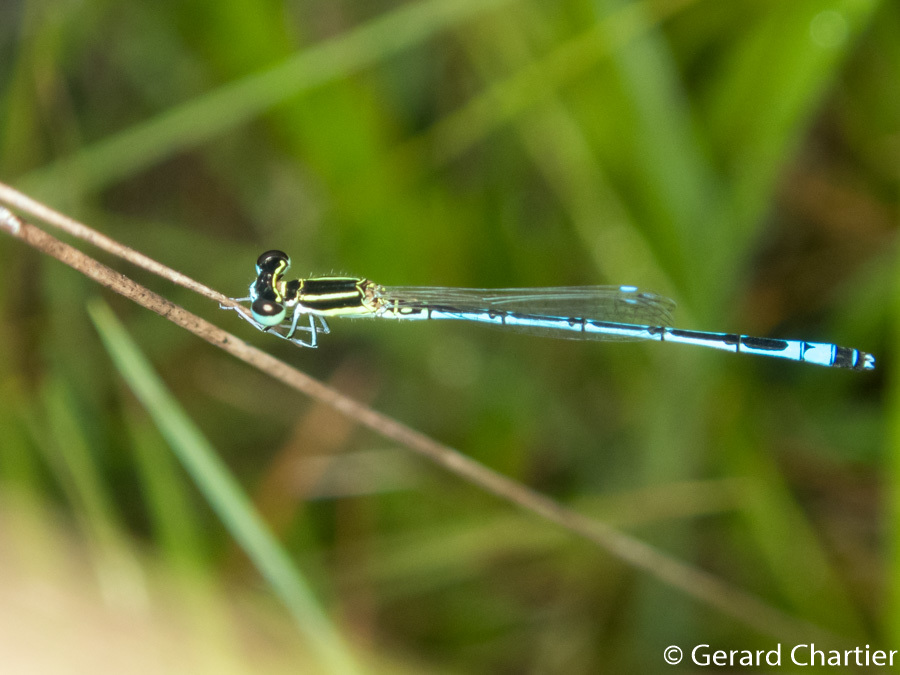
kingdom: Animalia
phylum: Arthropoda
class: Insecta
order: Odonata
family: Coenagrionidae
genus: Agriocnemis
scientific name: Agriocnemis nana
